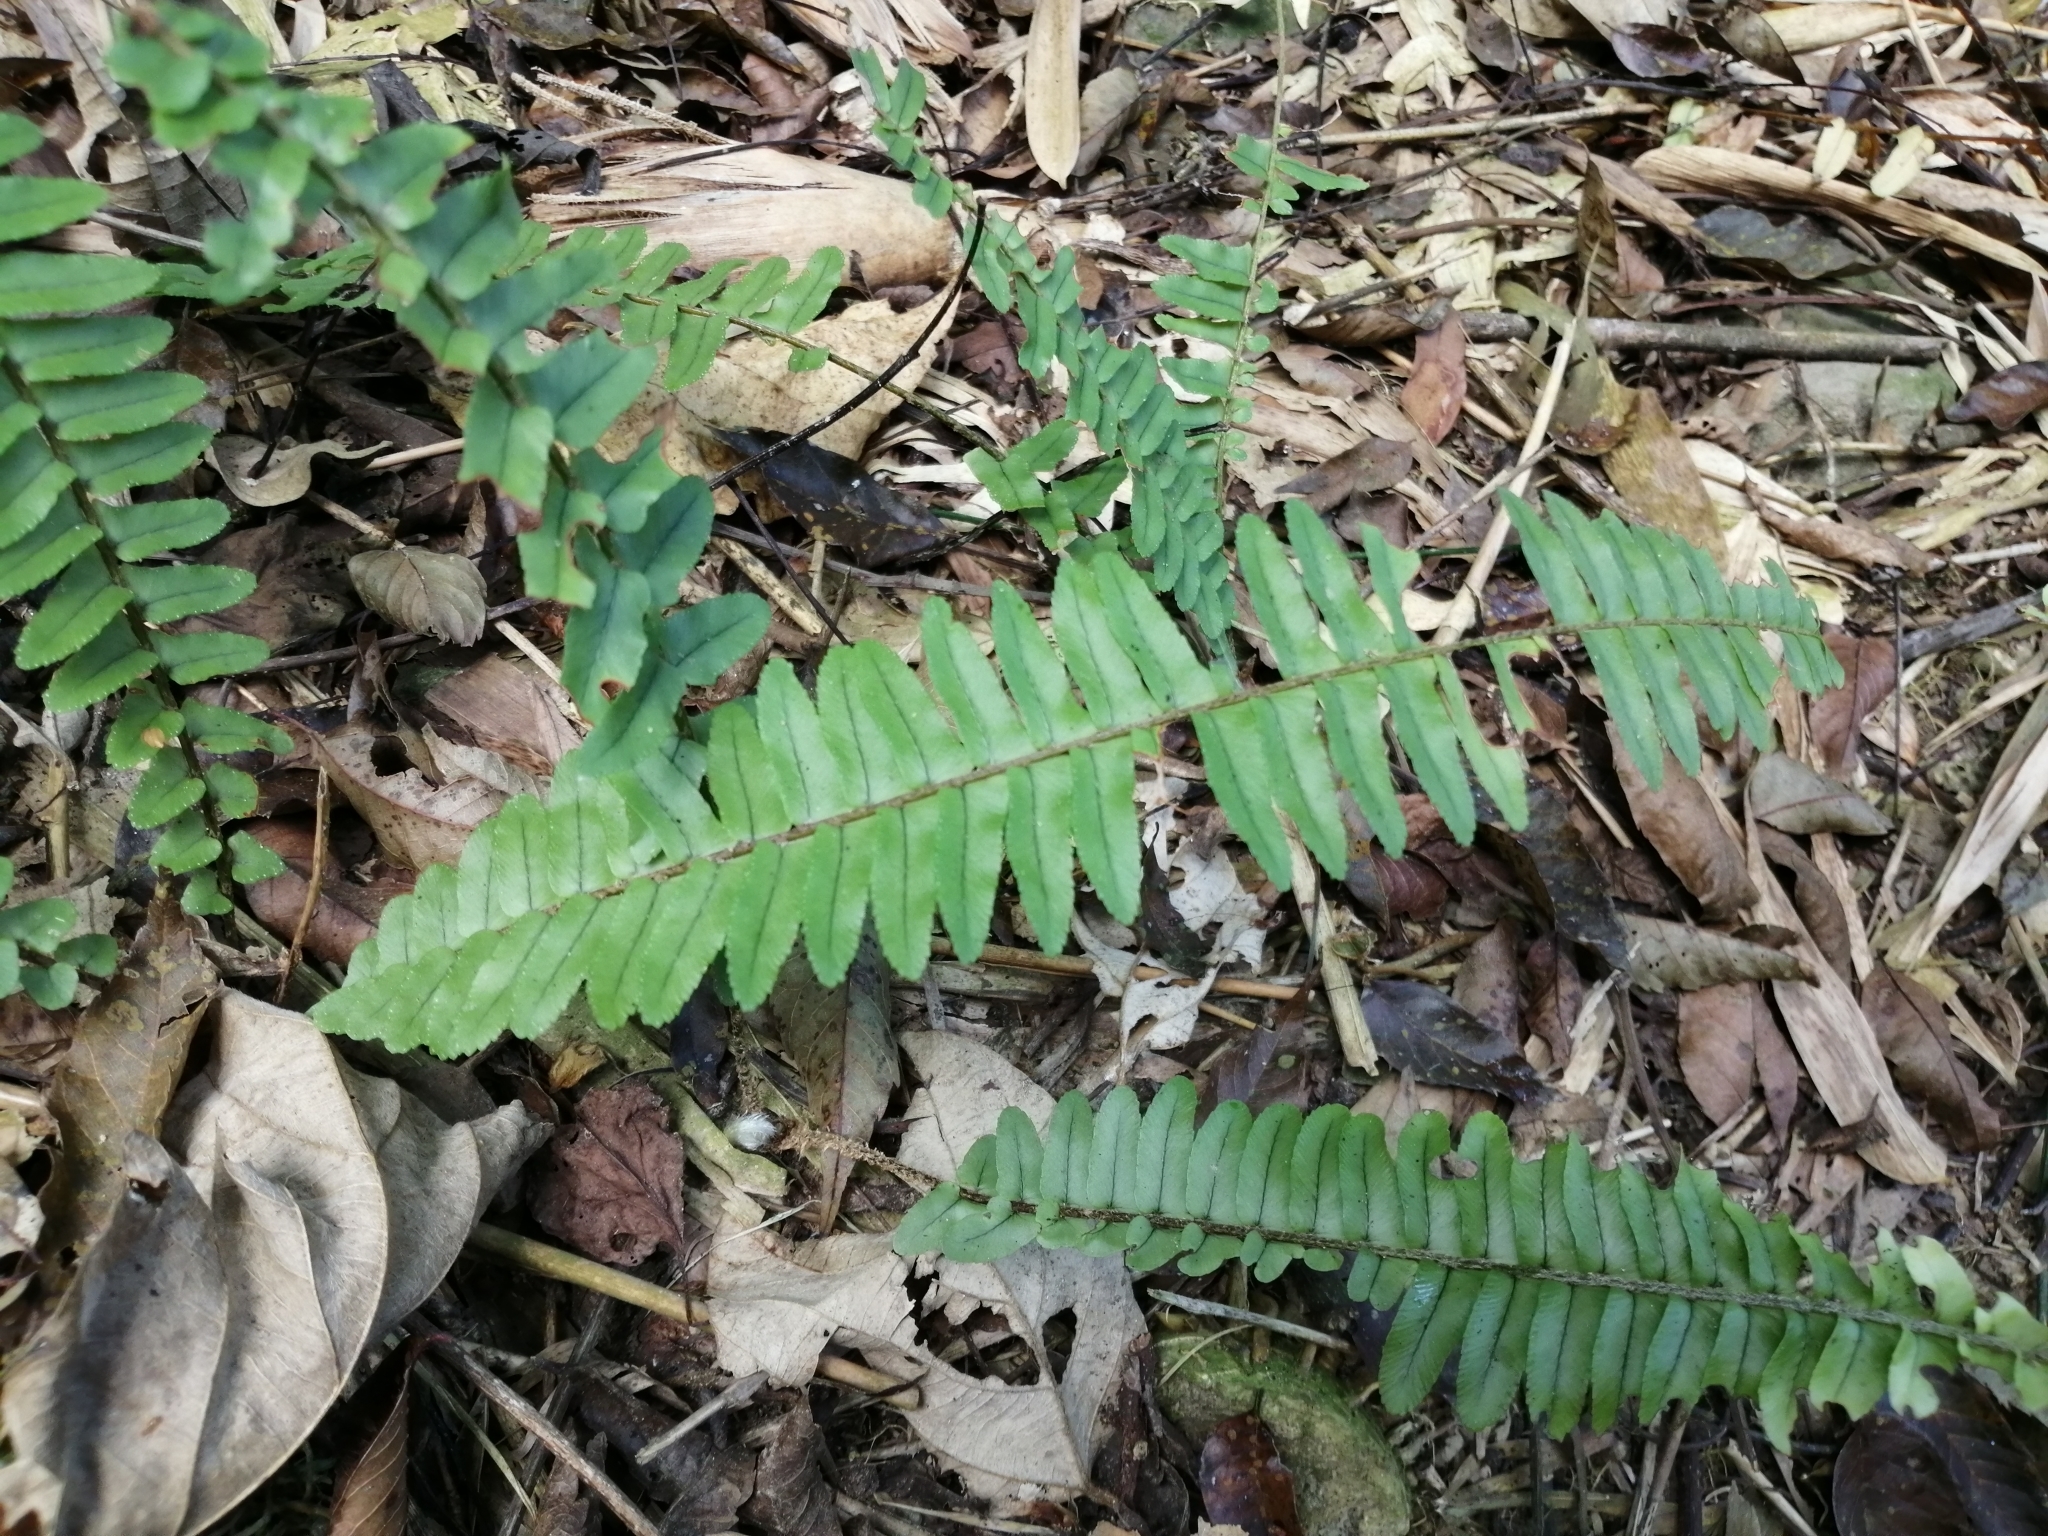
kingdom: Plantae
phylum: Tracheophyta
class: Polypodiopsida
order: Polypodiales
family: Nephrolepidaceae
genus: Nephrolepis
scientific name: Nephrolepis cordifolia
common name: Narrow swordfern
